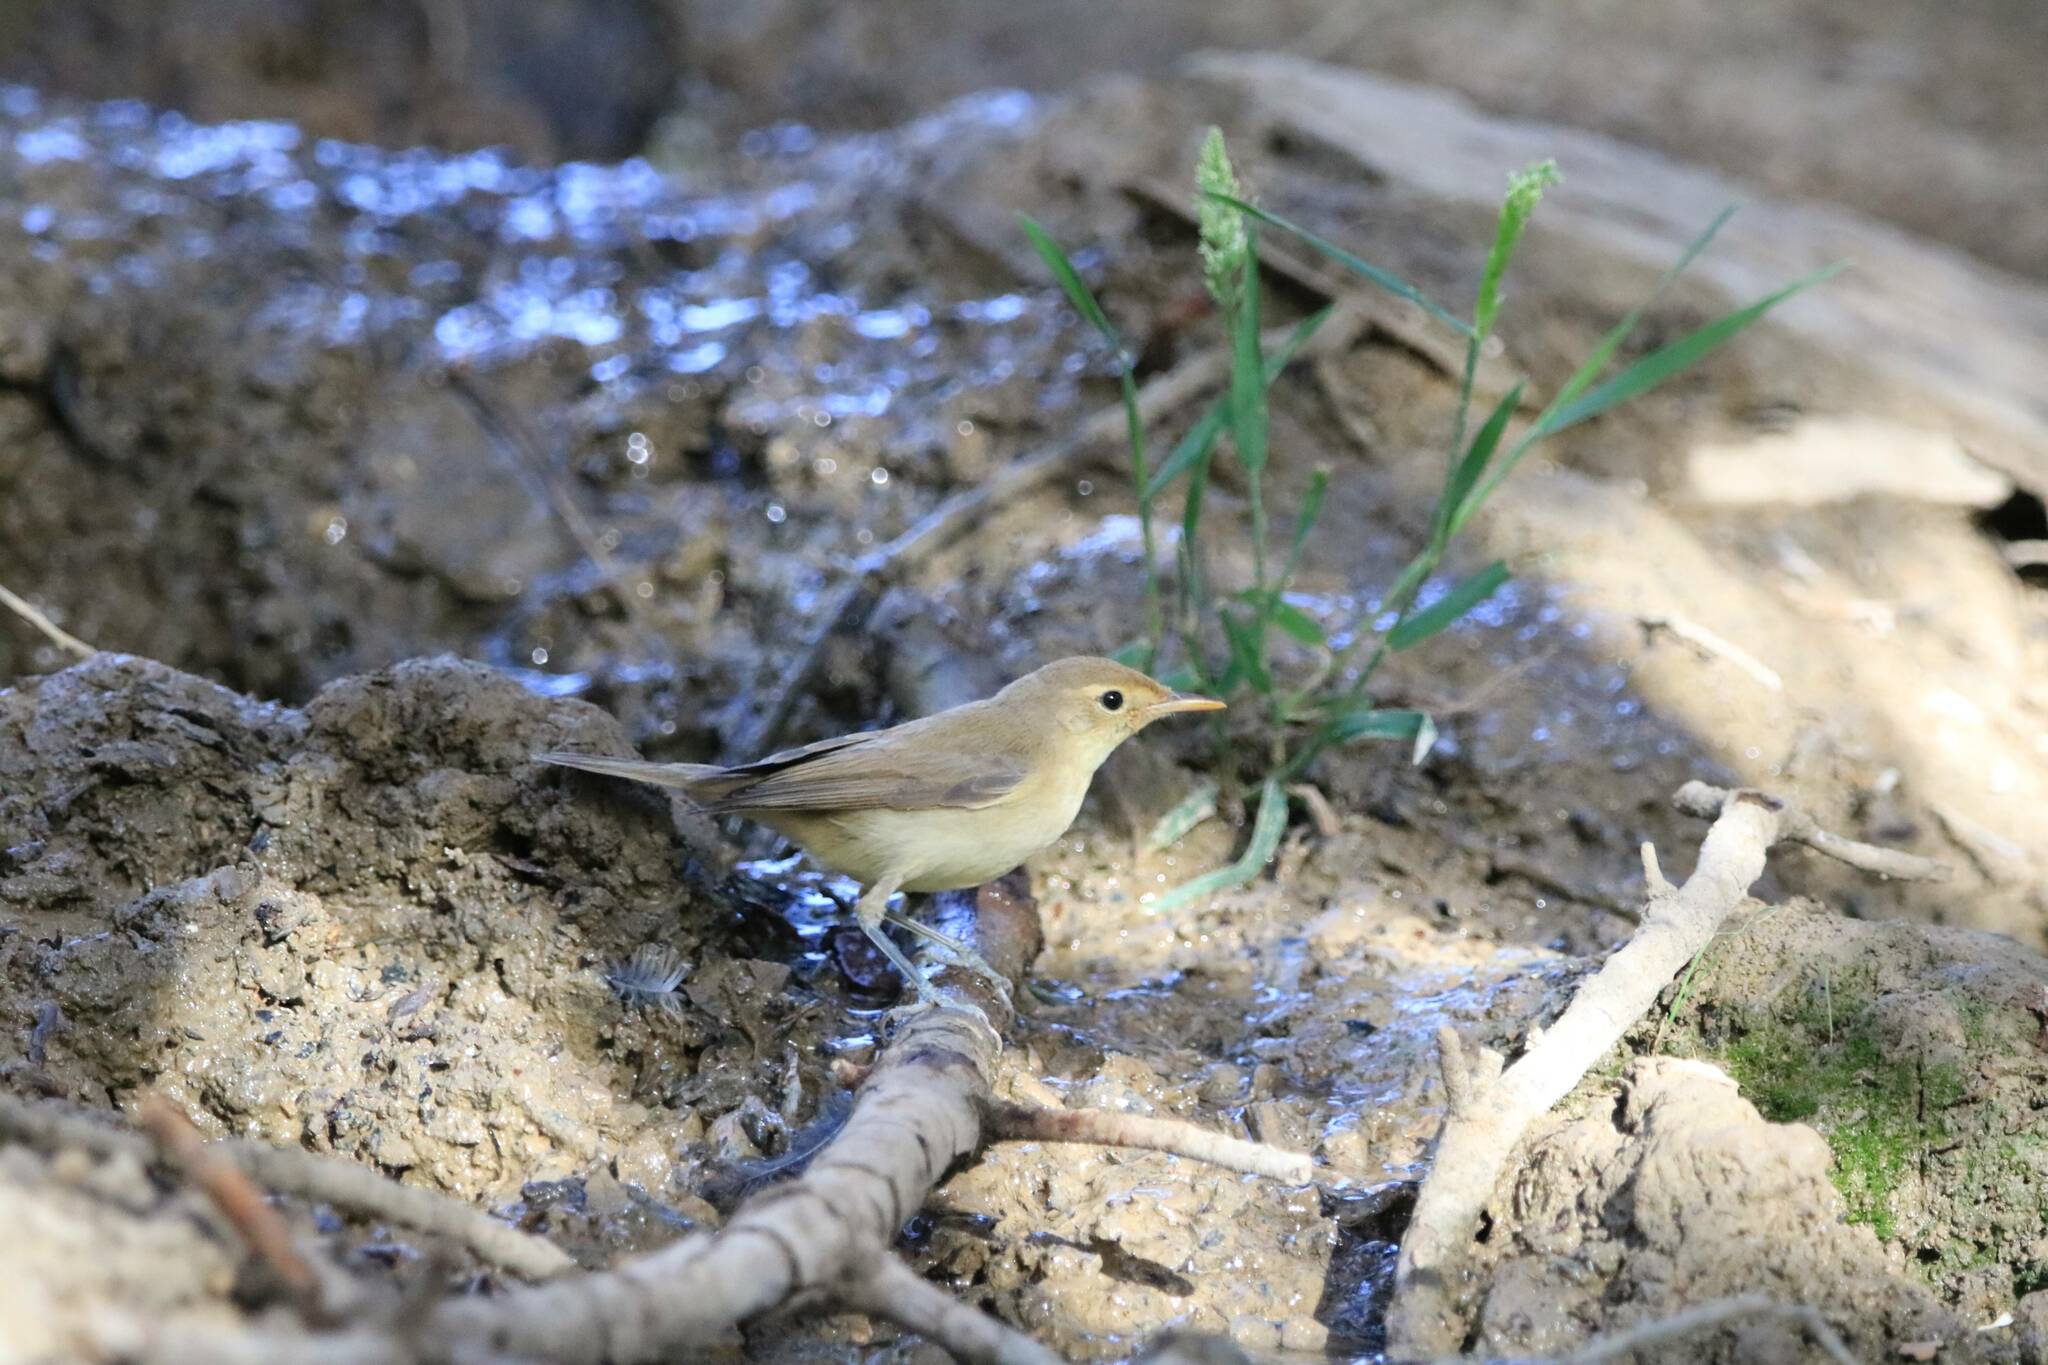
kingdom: Animalia
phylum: Chordata
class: Aves
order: Passeriformes
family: Acrocephalidae
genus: Hippolais
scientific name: Hippolais polyglotta
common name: Melodious warbler
